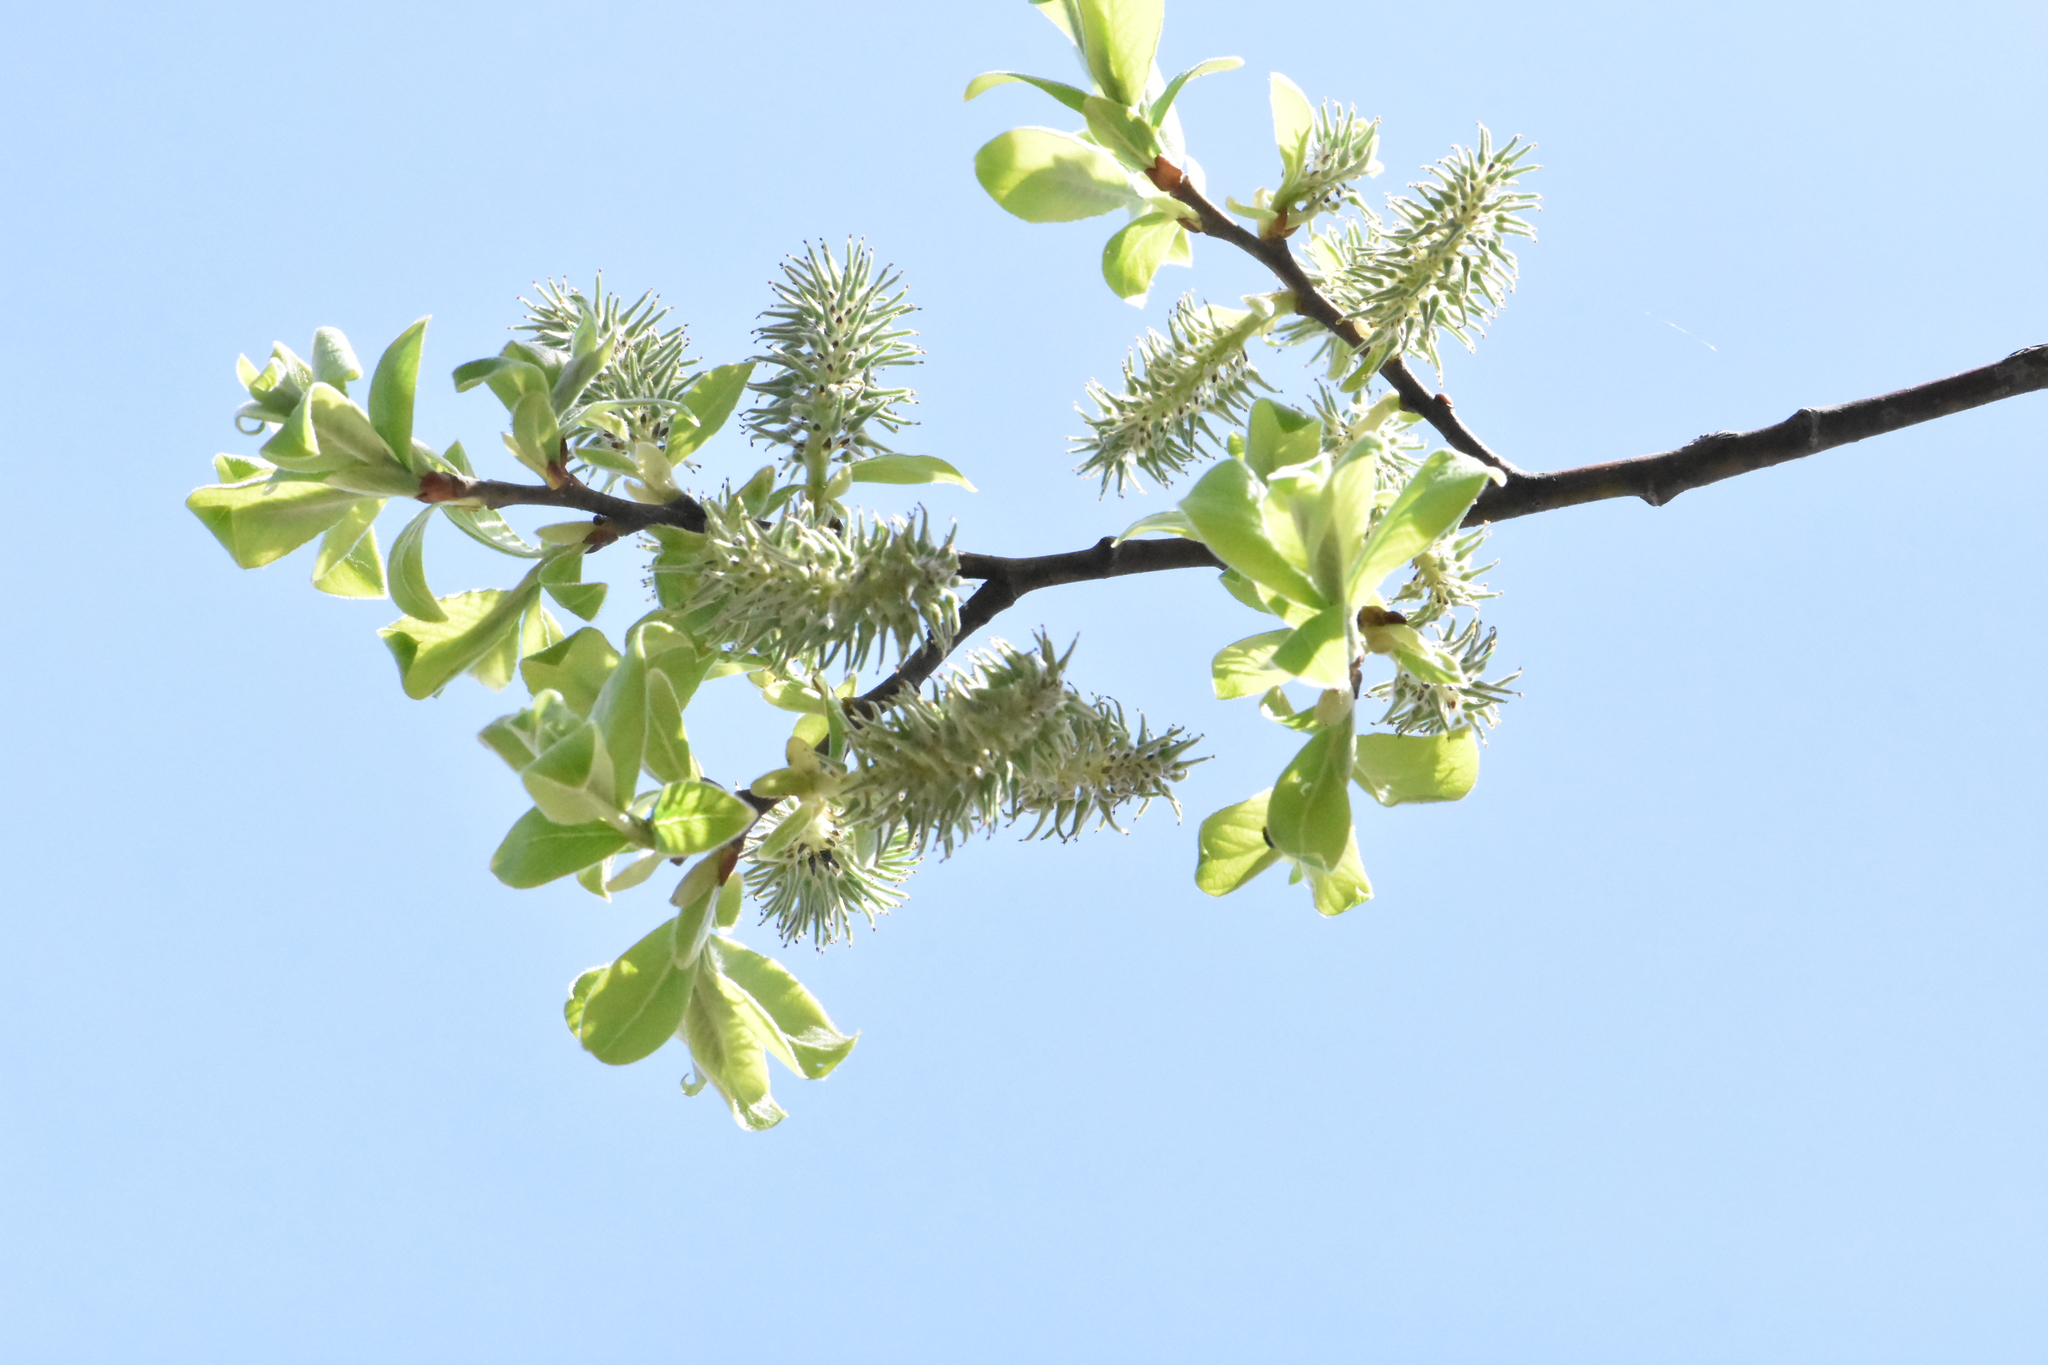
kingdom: Plantae
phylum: Tracheophyta
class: Magnoliopsida
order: Malpighiales
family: Salicaceae
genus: Salix
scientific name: Salix caprea
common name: Goat willow
